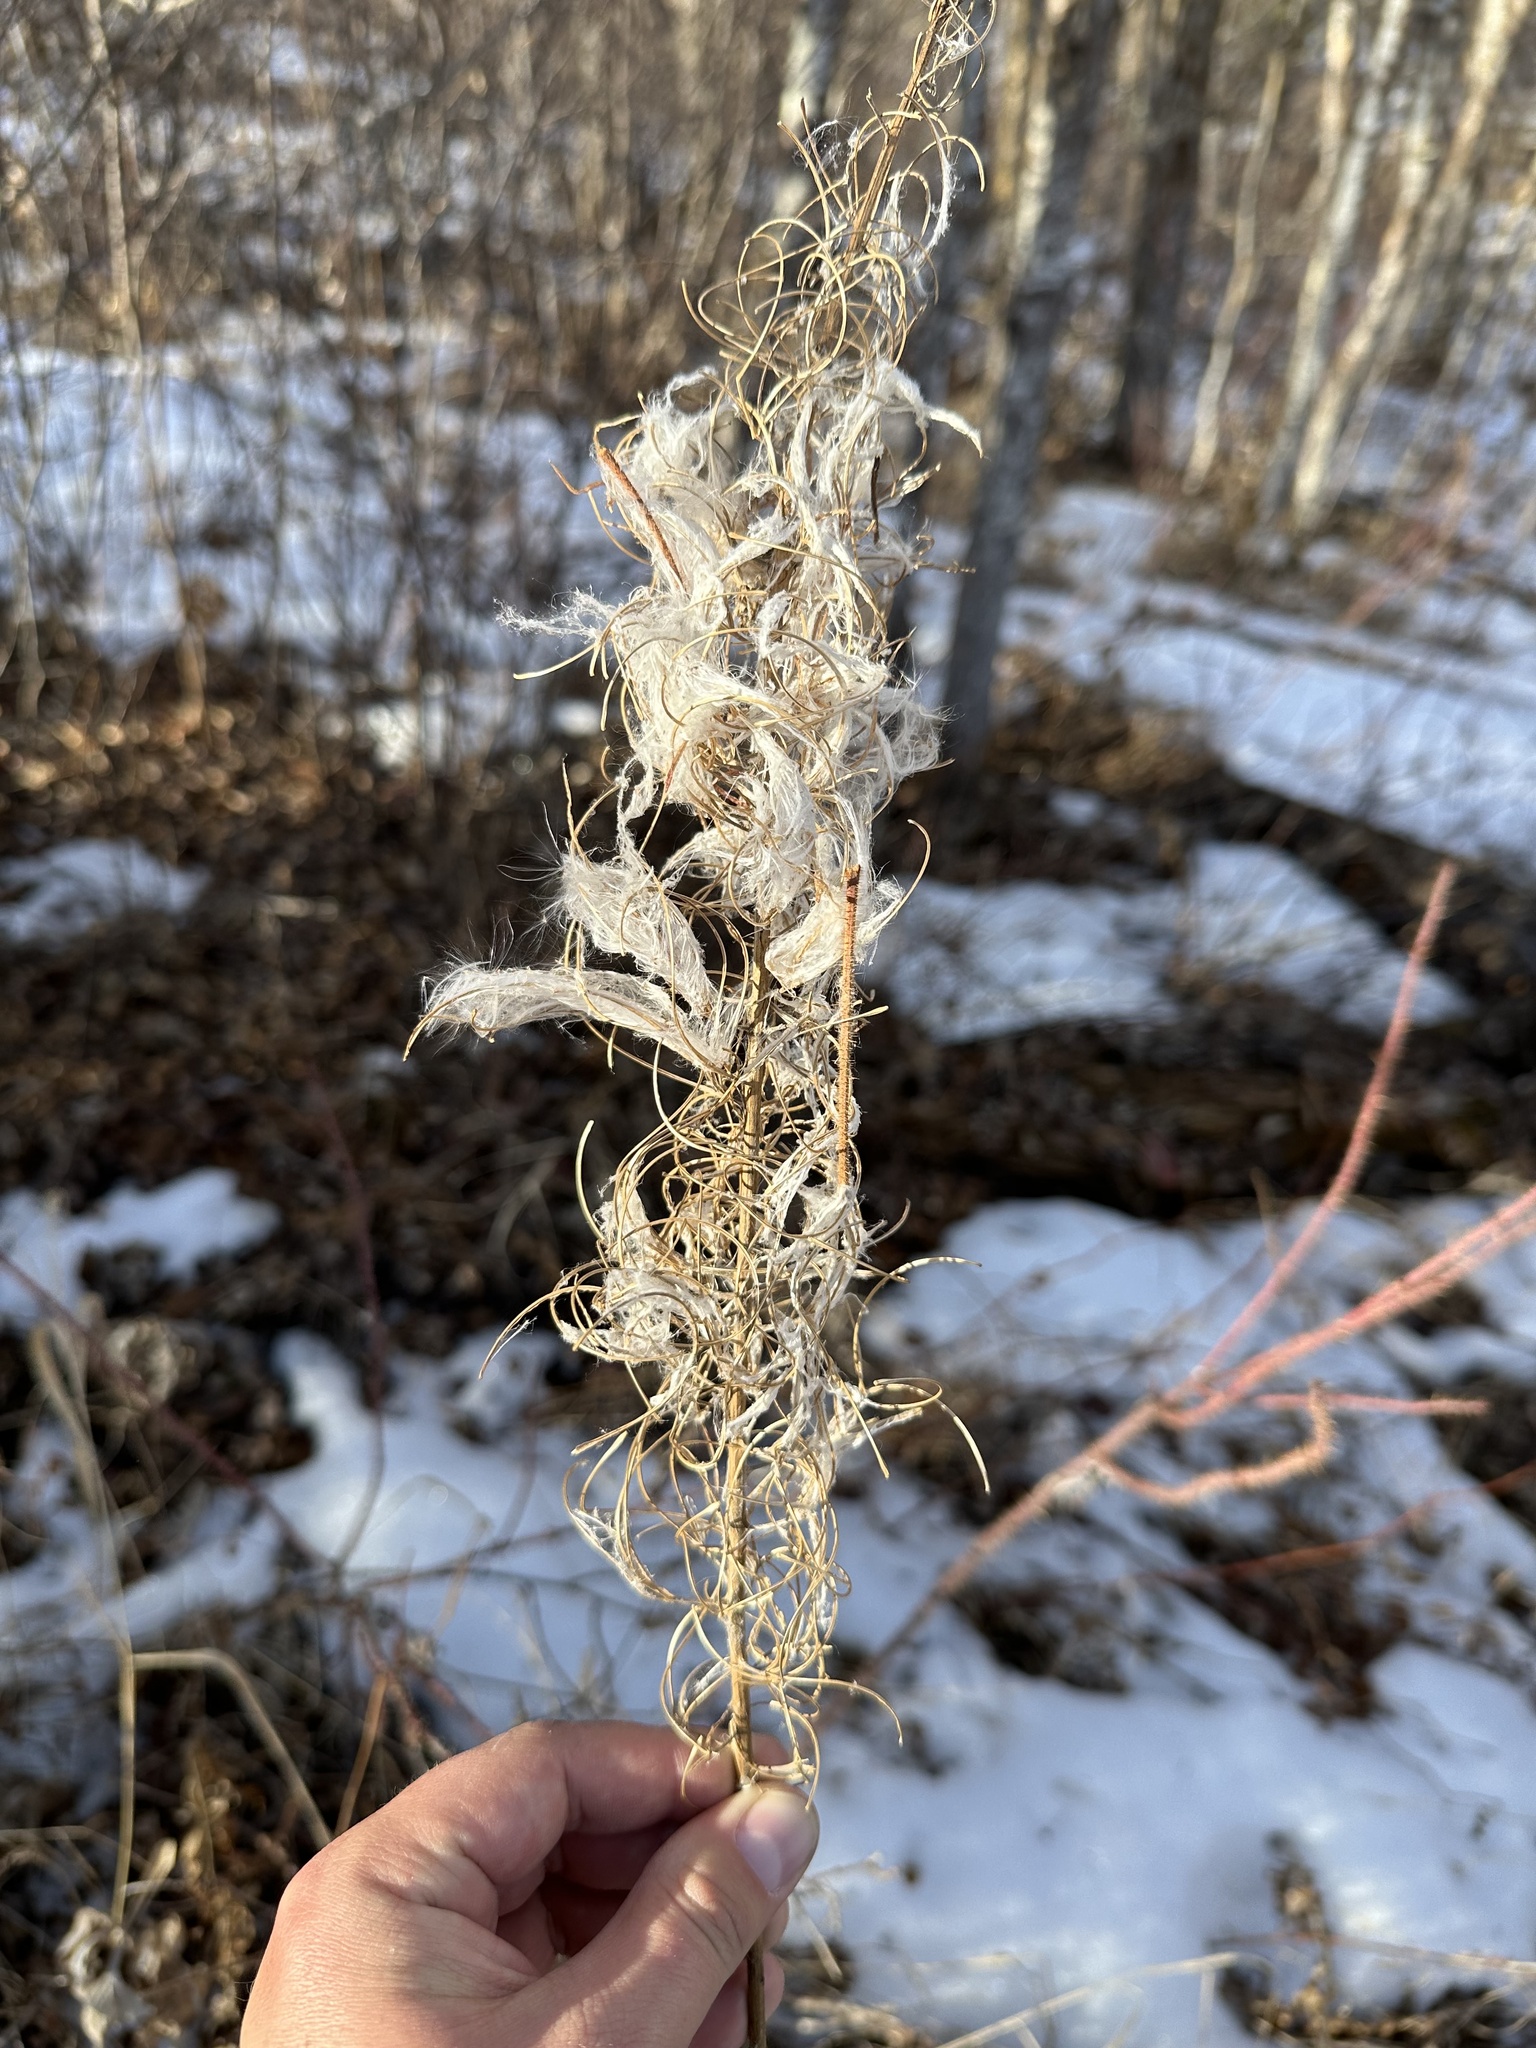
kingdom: Plantae
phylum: Tracheophyta
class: Magnoliopsida
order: Myrtales
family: Onagraceae
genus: Chamaenerion
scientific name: Chamaenerion angustifolium
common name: Fireweed
